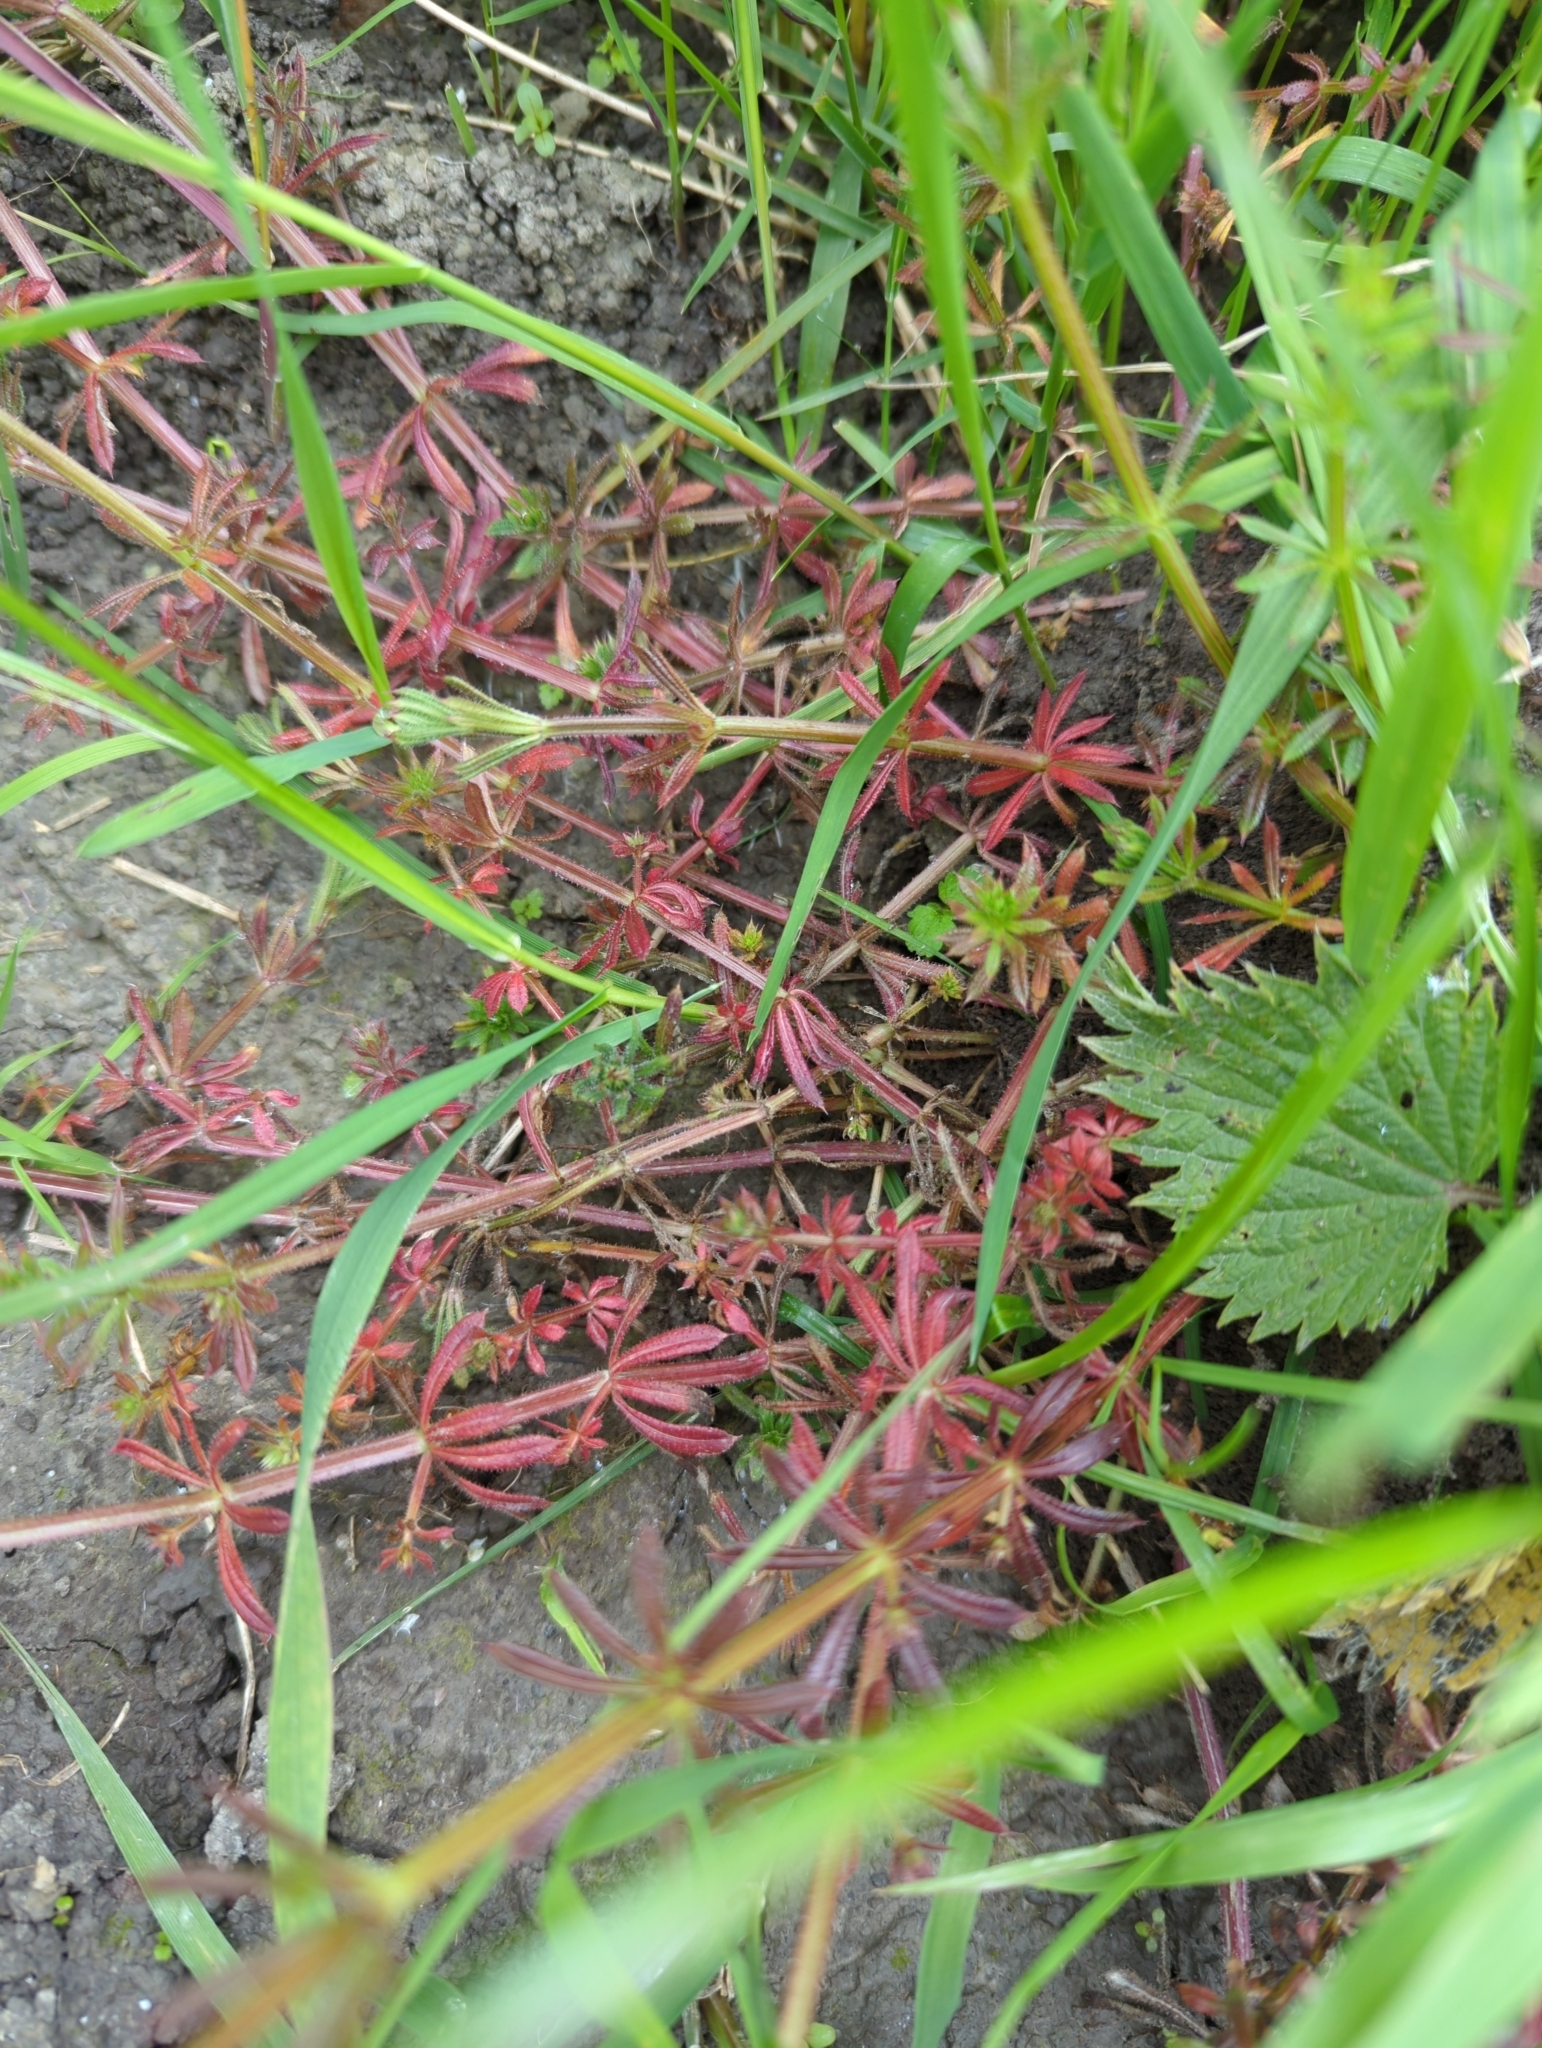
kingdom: Plantae
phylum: Tracheophyta
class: Magnoliopsida
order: Gentianales
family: Rubiaceae
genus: Galium
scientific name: Galium aparine
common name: Cleavers
